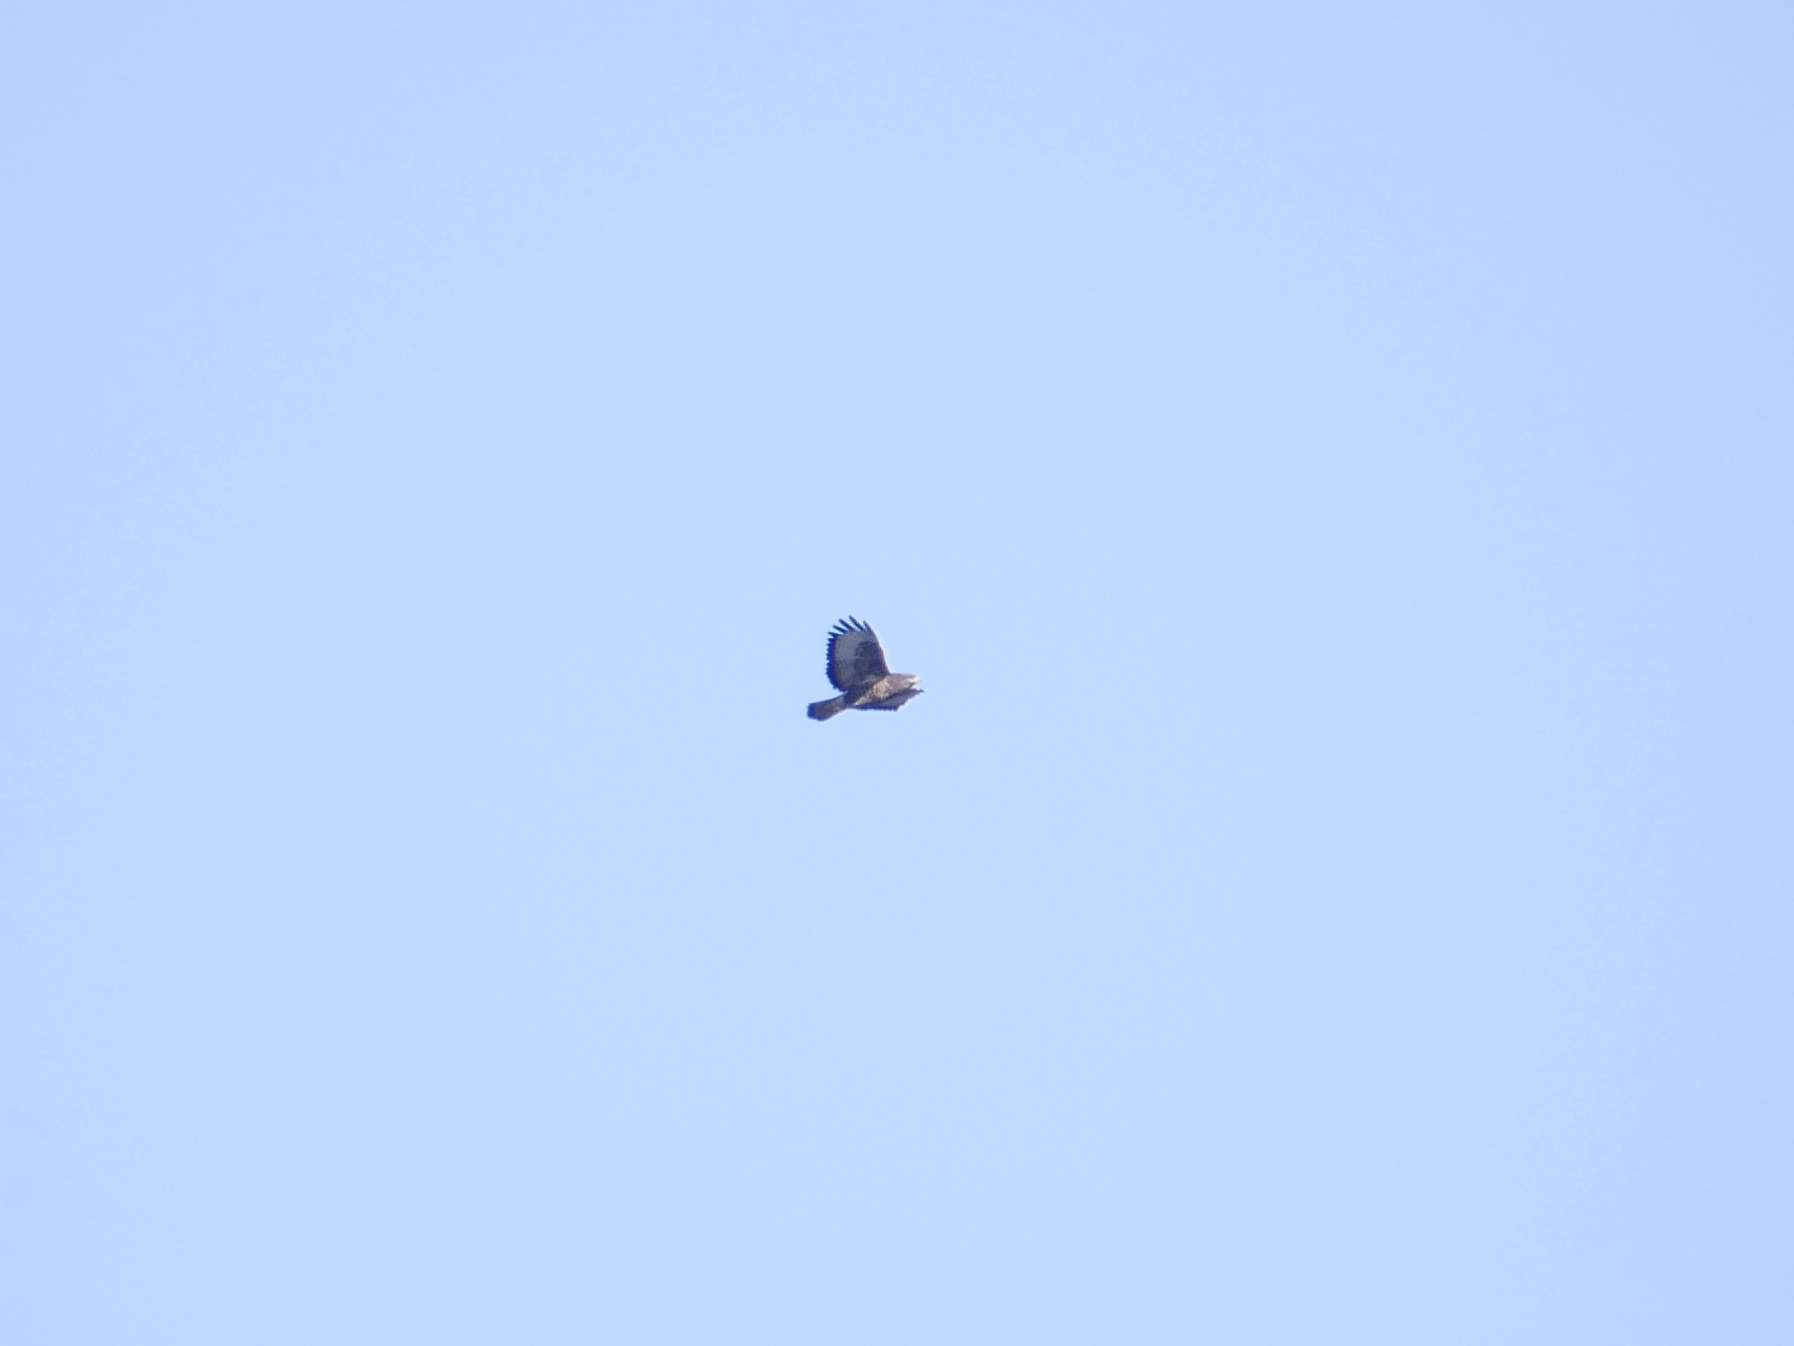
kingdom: Animalia
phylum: Chordata
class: Aves
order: Accipitriformes
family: Accipitridae
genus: Buteo
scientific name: Buteo buteo
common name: Common buzzard
